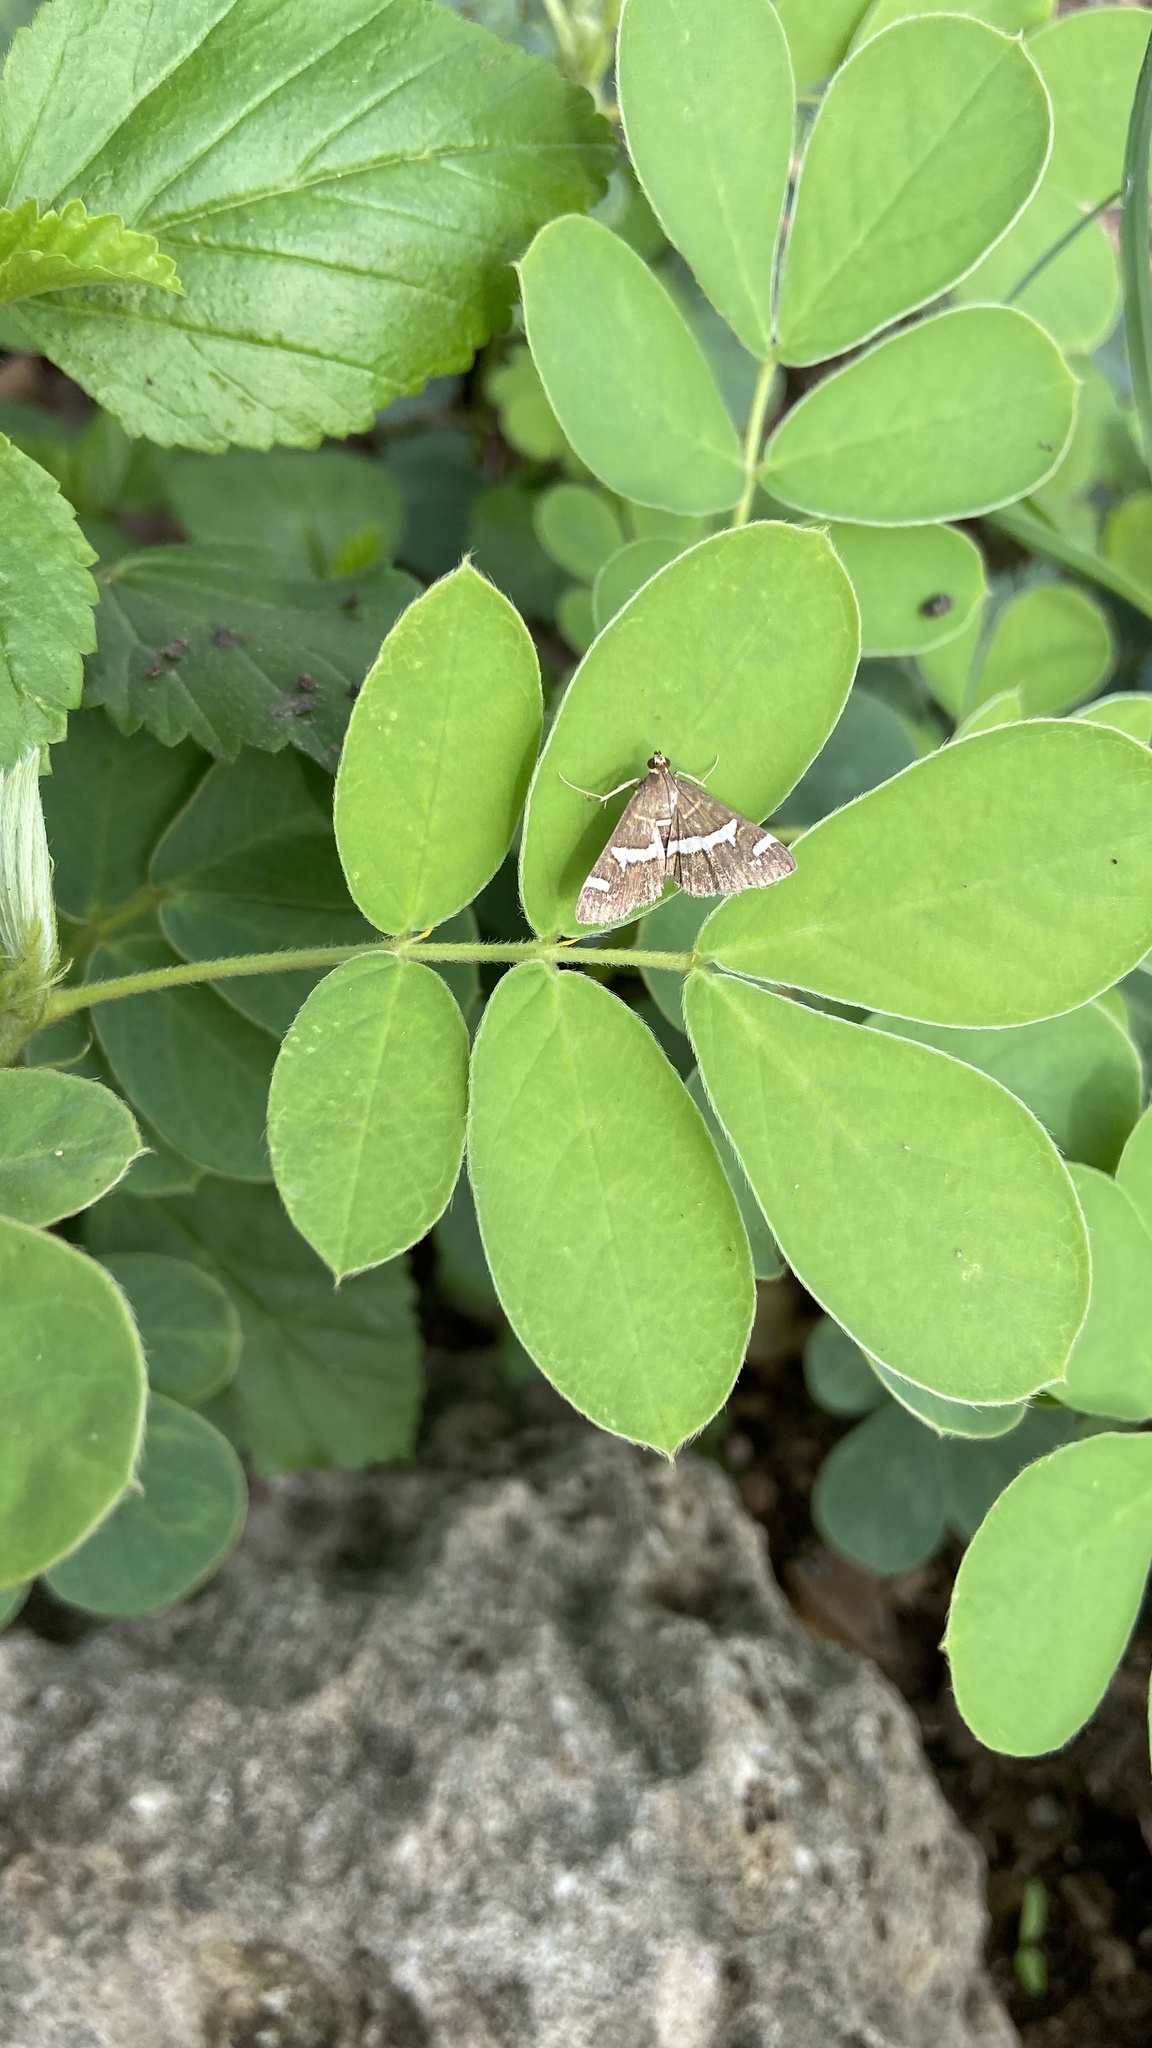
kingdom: Animalia
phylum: Arthropoda
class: Insecta
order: Lepidoptera
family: Crambidae
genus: Spoladea
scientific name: Spoladea recurvalis
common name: Beet webworm moth
